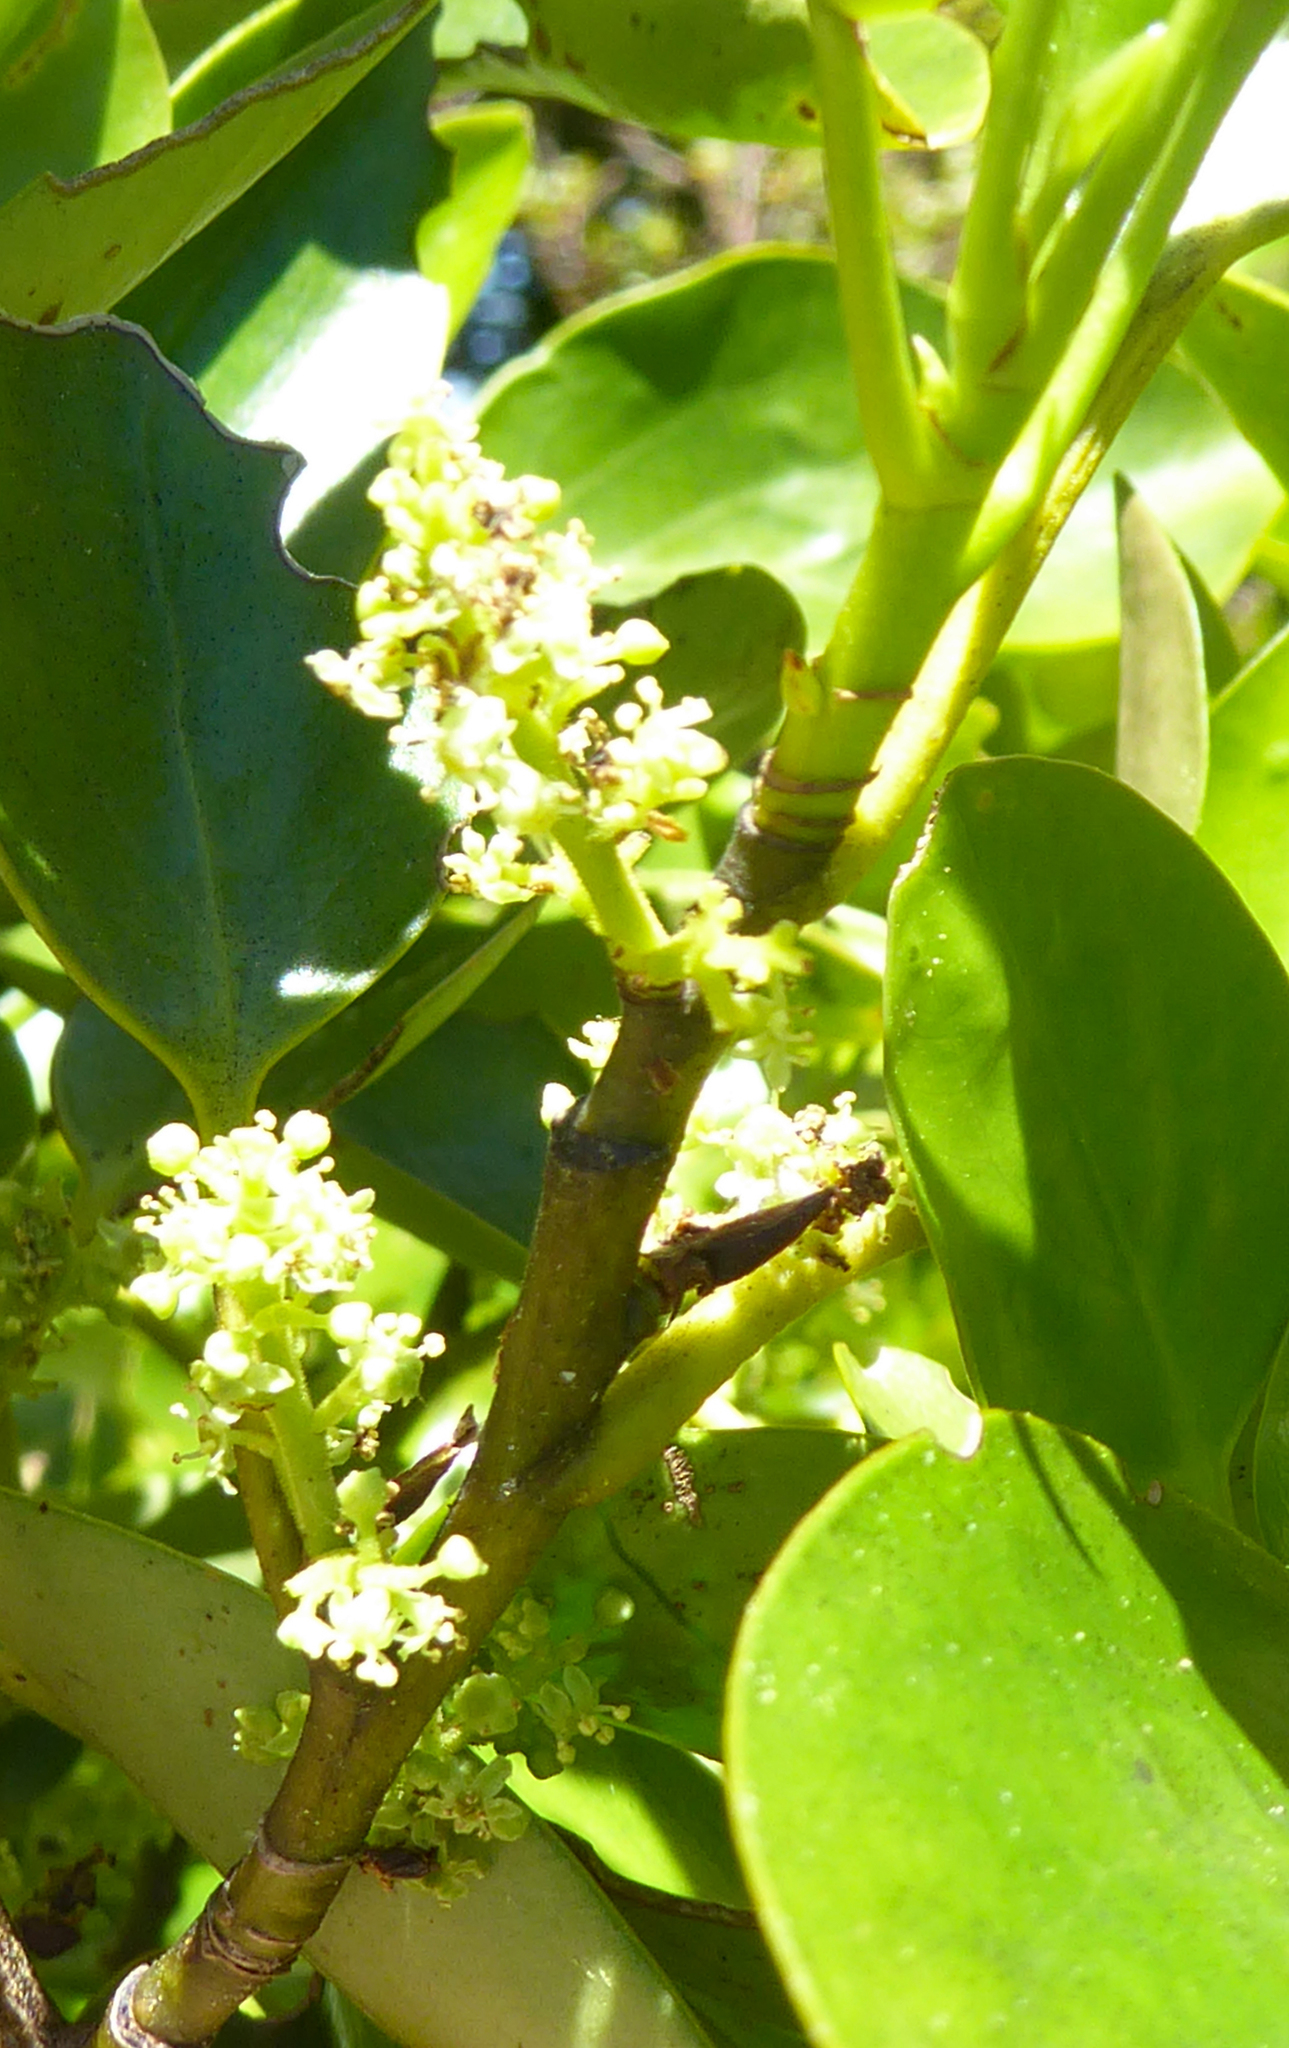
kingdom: Plantae
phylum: Tracheophyta
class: Magnoliopsida
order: Apiales
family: Griseliniaceae
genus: Griselinia
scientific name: Griselinia littoralis
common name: New zealand broadleaf
